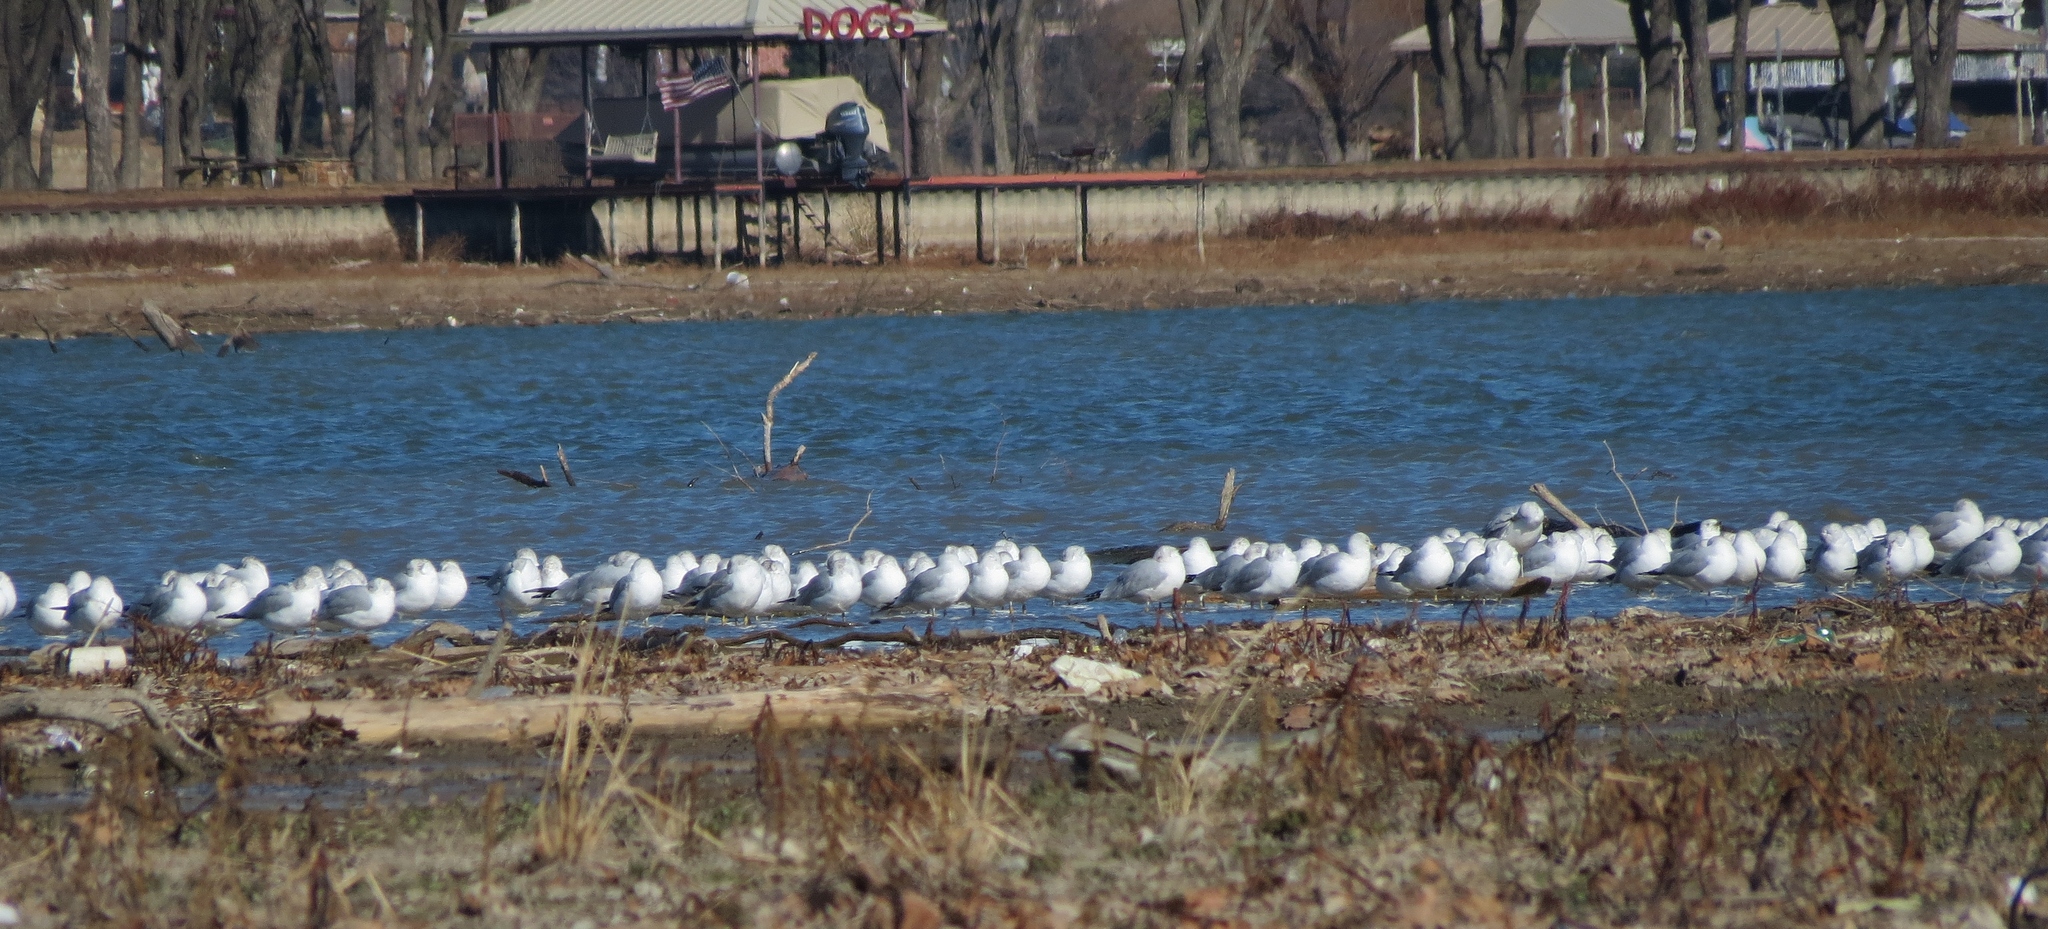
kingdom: Animalia
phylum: Chordata
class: Aves
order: Charadriiformes
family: Laridae
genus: Larus
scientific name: Larus delawarensis
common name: Ring-billed gull
